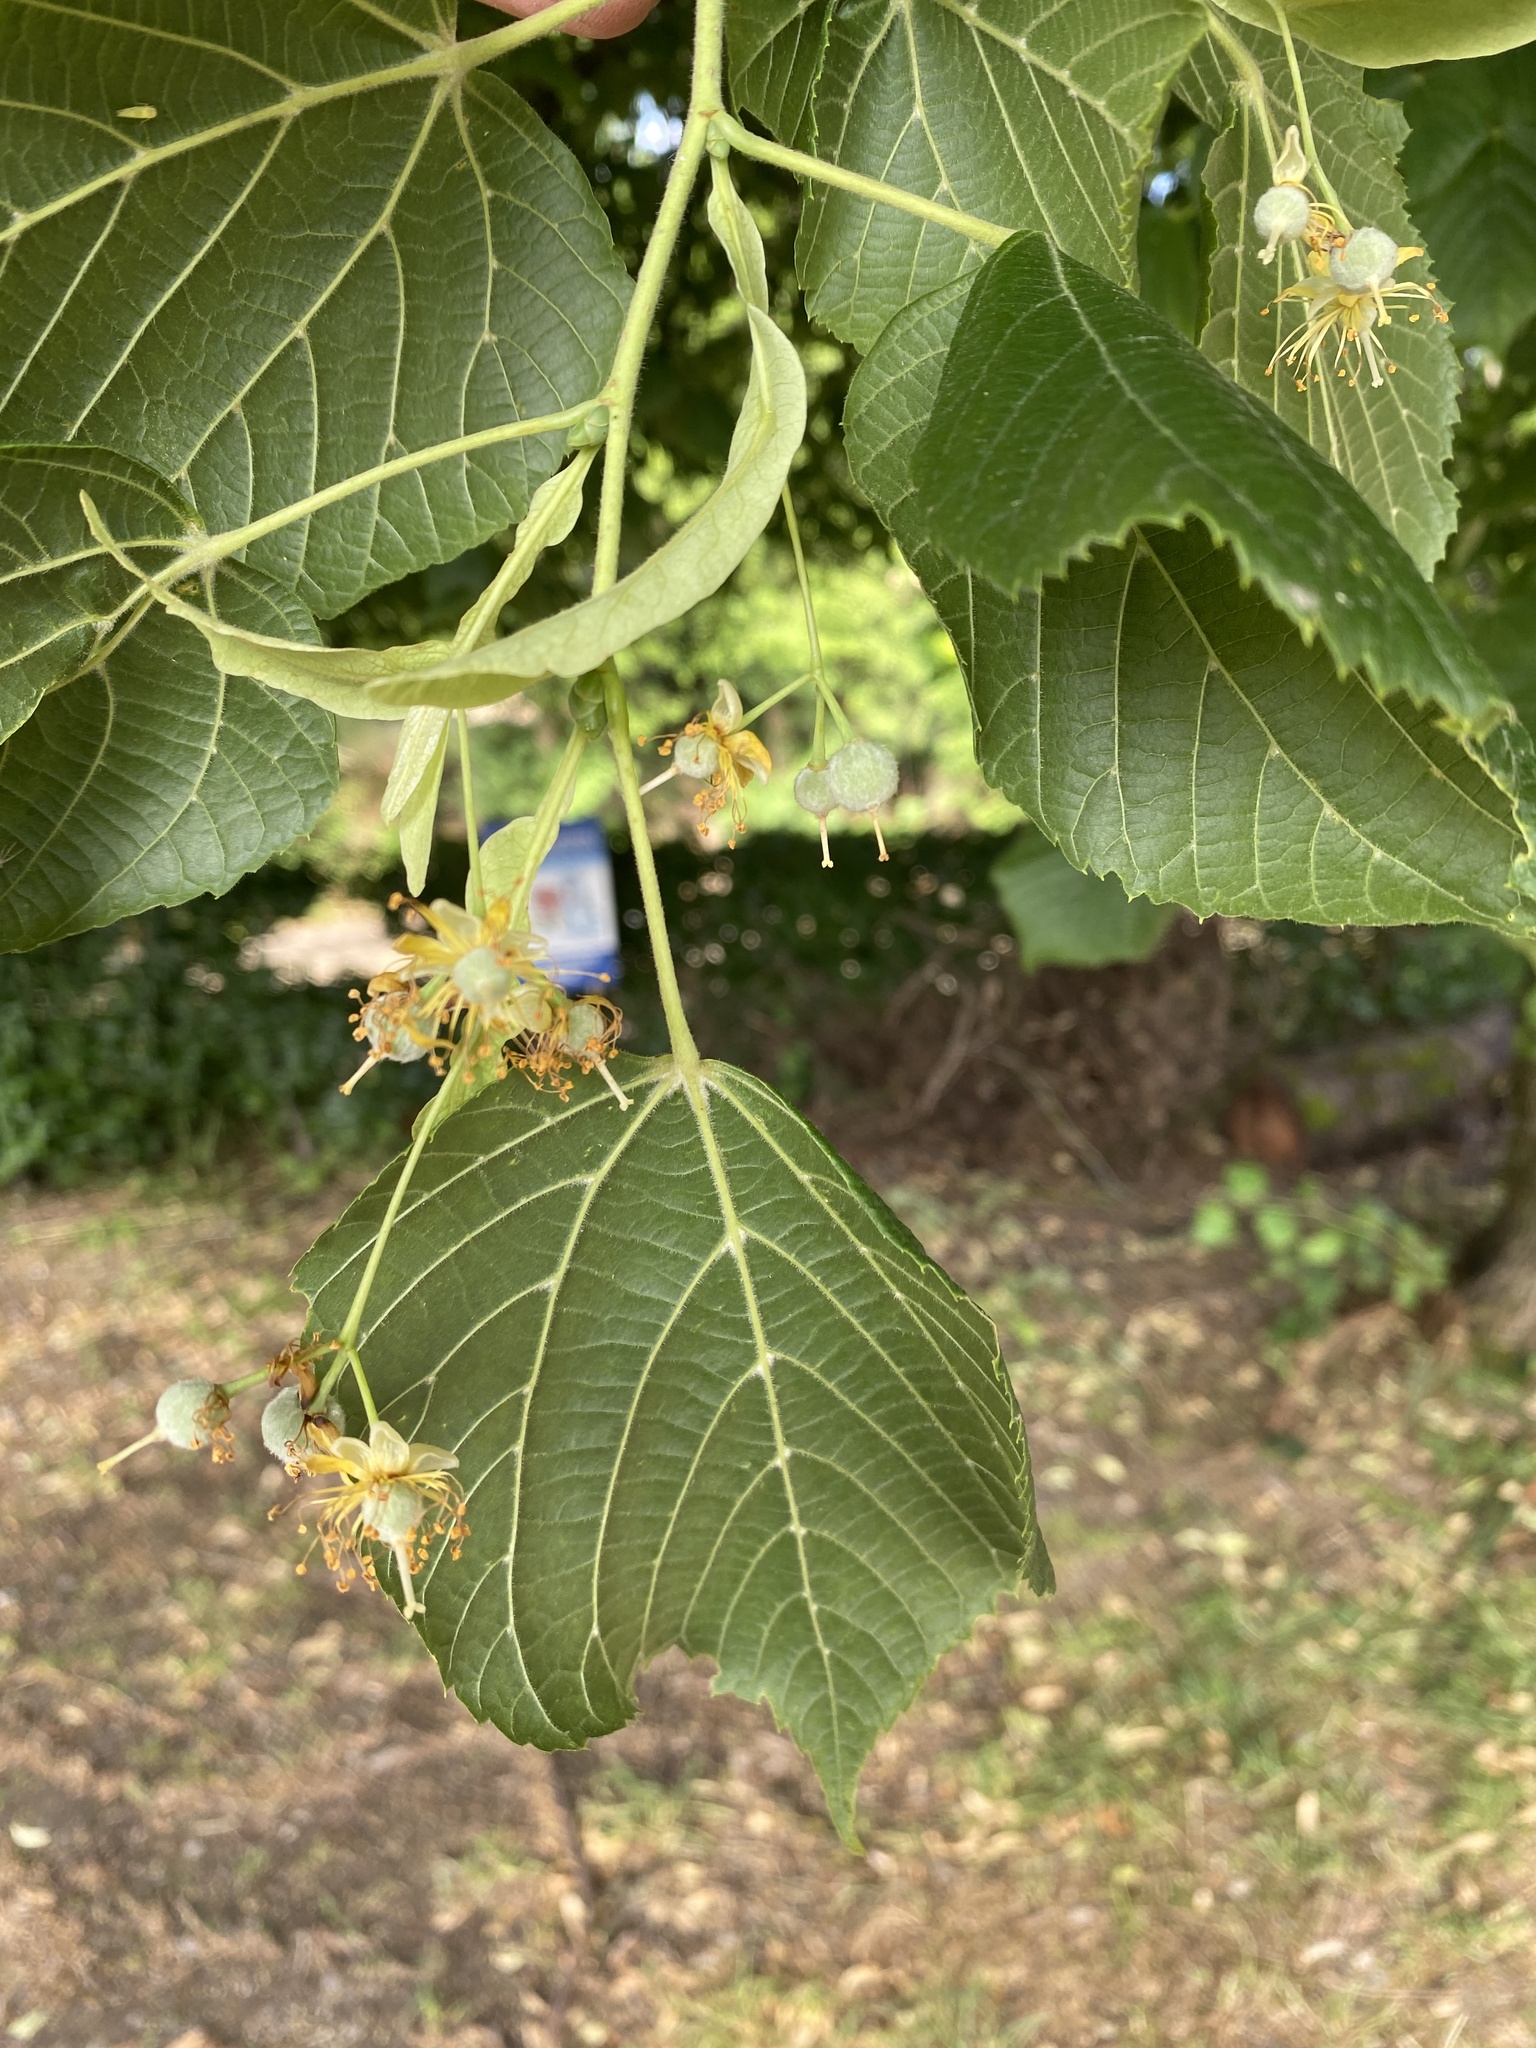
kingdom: Plantae
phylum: Tracheophyta
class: Magnoliopsida
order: Malvales
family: Malvaceae
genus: Tilia
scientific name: Tilia platyphyllos
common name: Large-leaved lime
